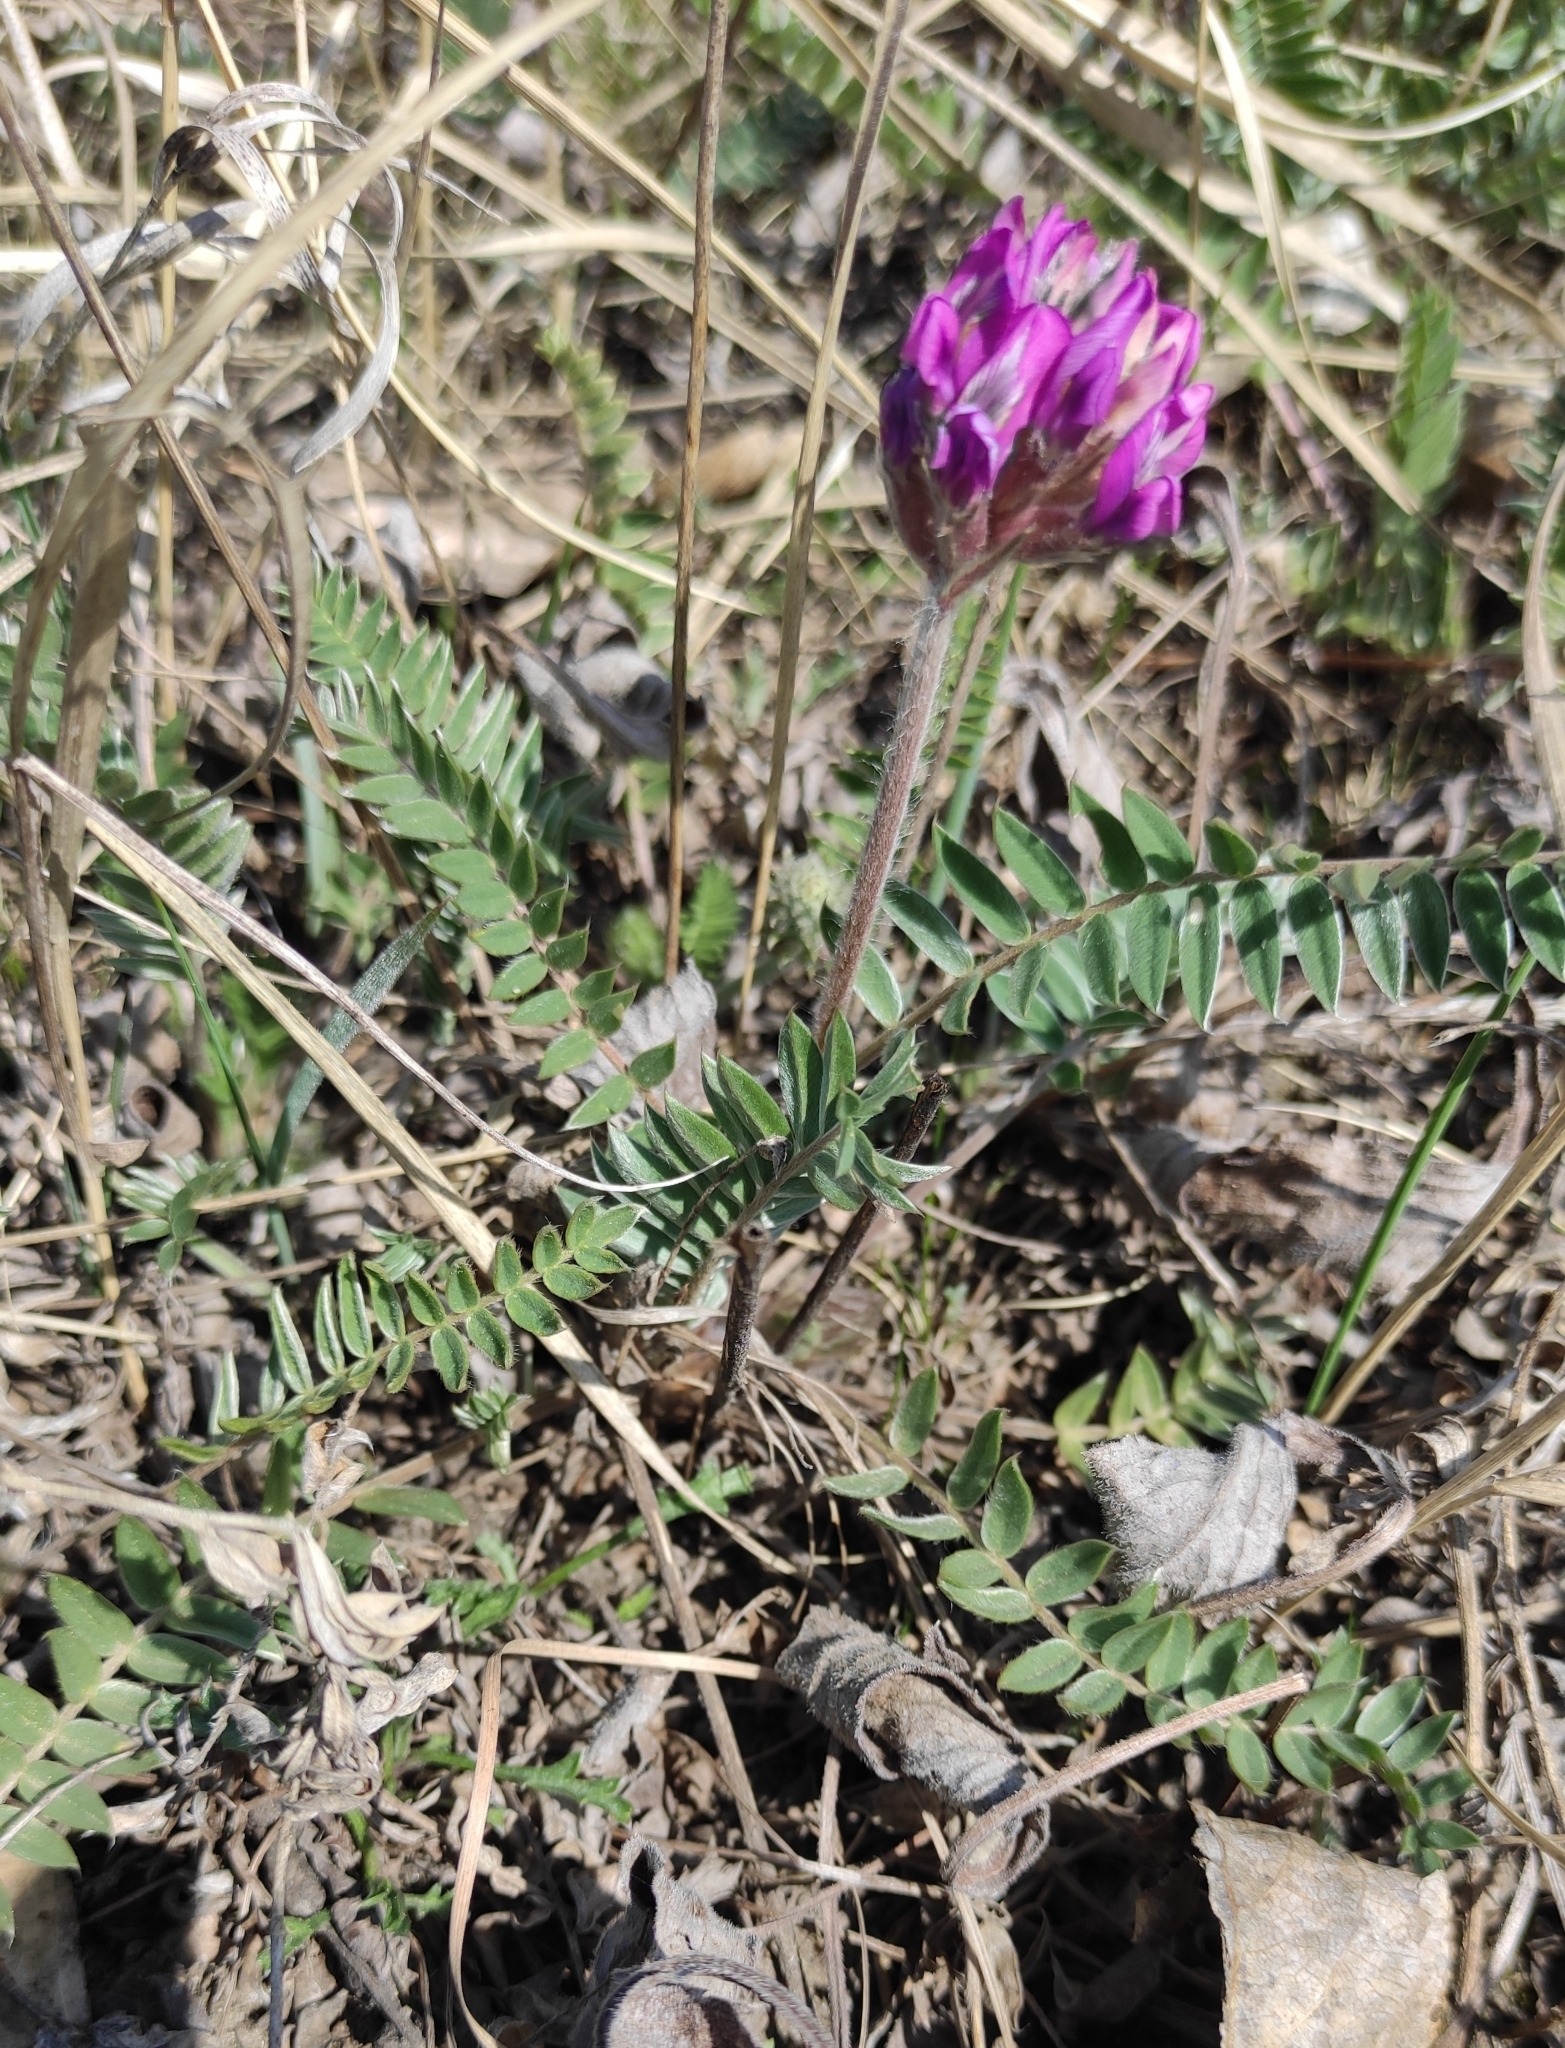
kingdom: Plantae
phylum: Tracheophyta
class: Magnoliopsida
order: Fabales
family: Fabaceae
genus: Oxytropis
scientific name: Oxytropis strobilacea
